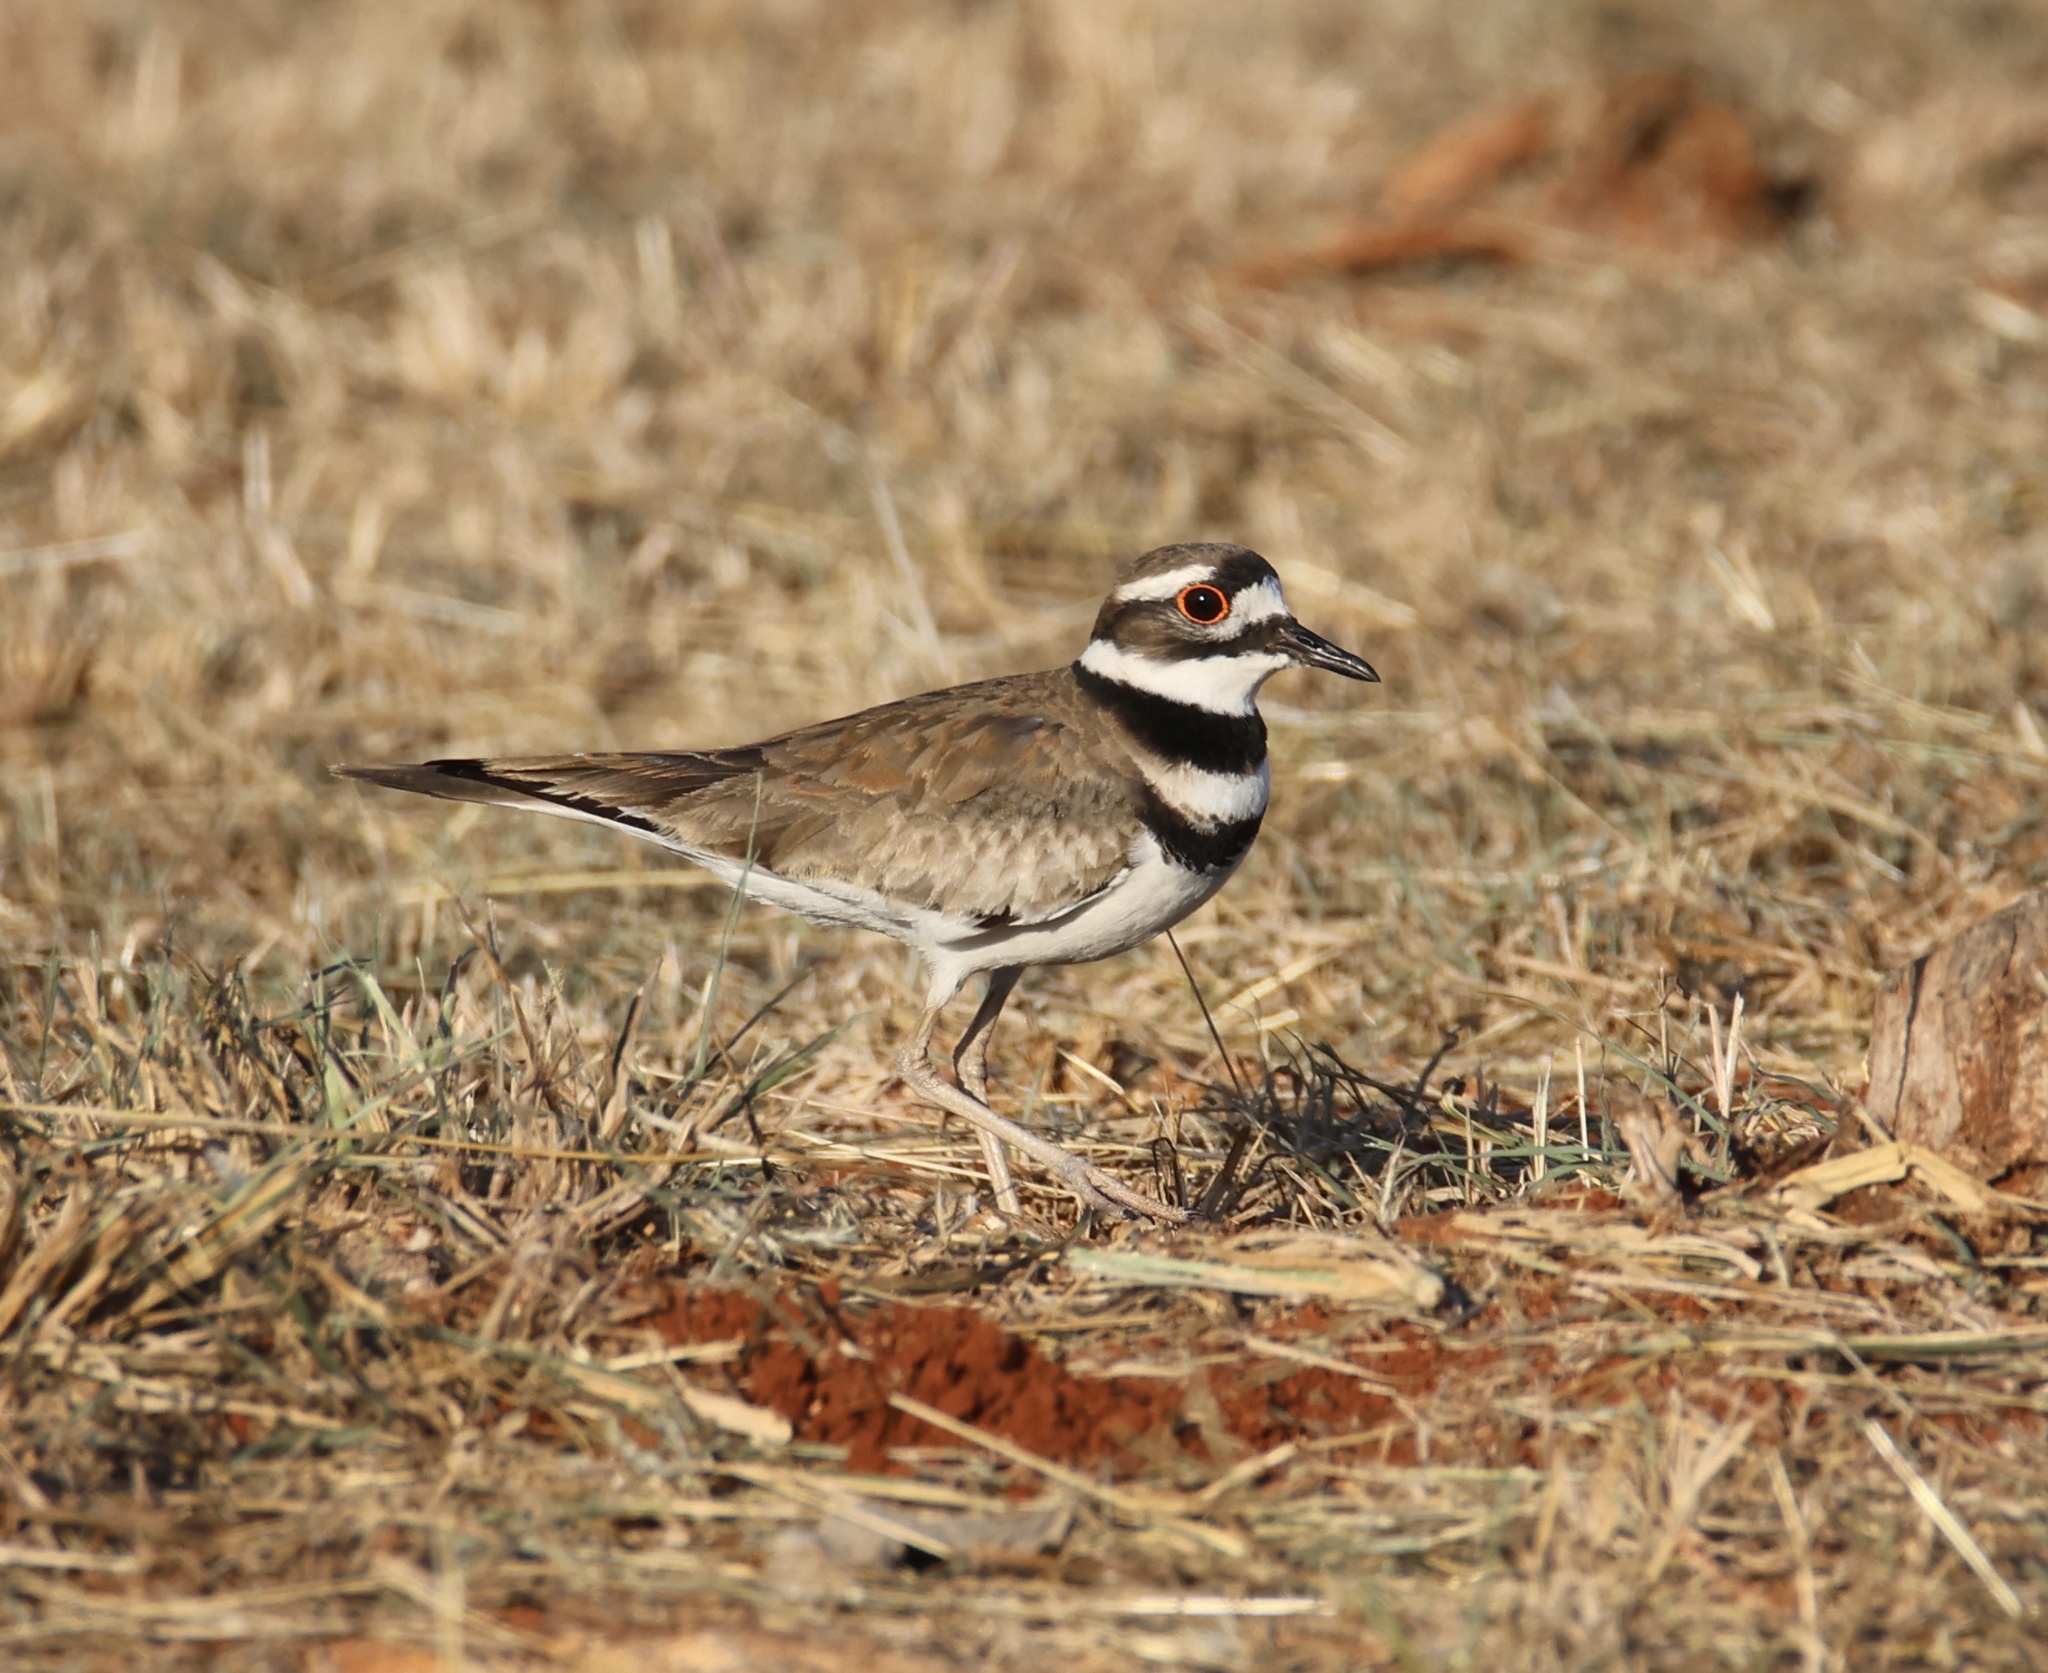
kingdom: Animalia
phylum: Chordata
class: Aves
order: Charadriiformes
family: Charadriidae
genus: Charadrius
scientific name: Charadrius vociferus
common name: Killdeer
